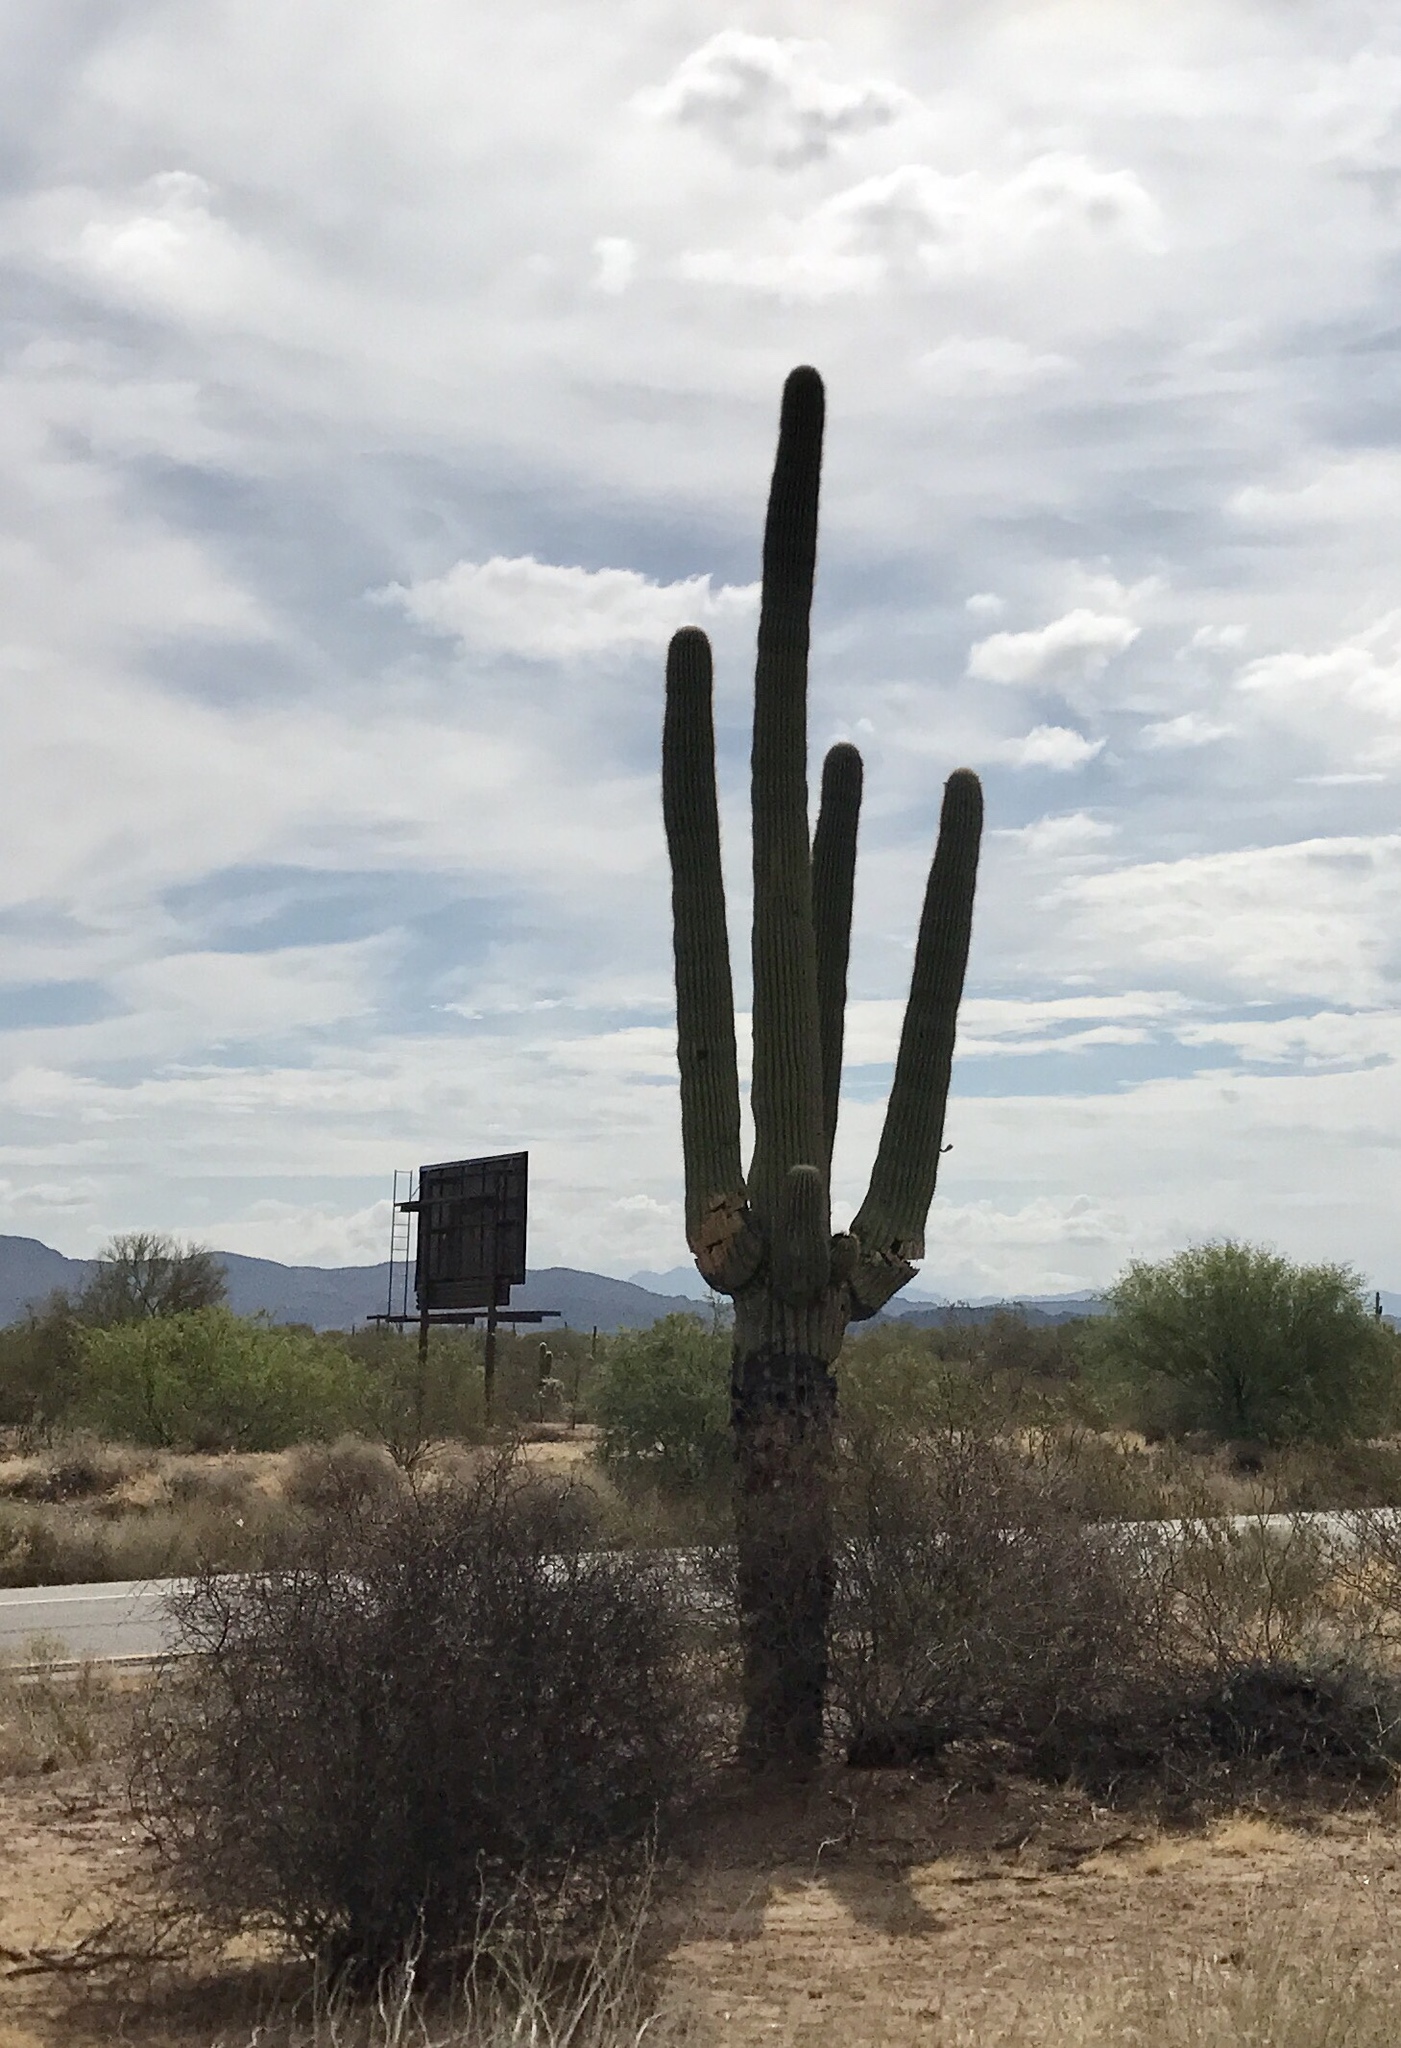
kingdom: Plantae
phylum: Tracheophyta
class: Magnoliopsida
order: Caryophyllales
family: Cactaceae
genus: Carnegiea
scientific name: Carnegiea gigantea
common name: Saguaro
